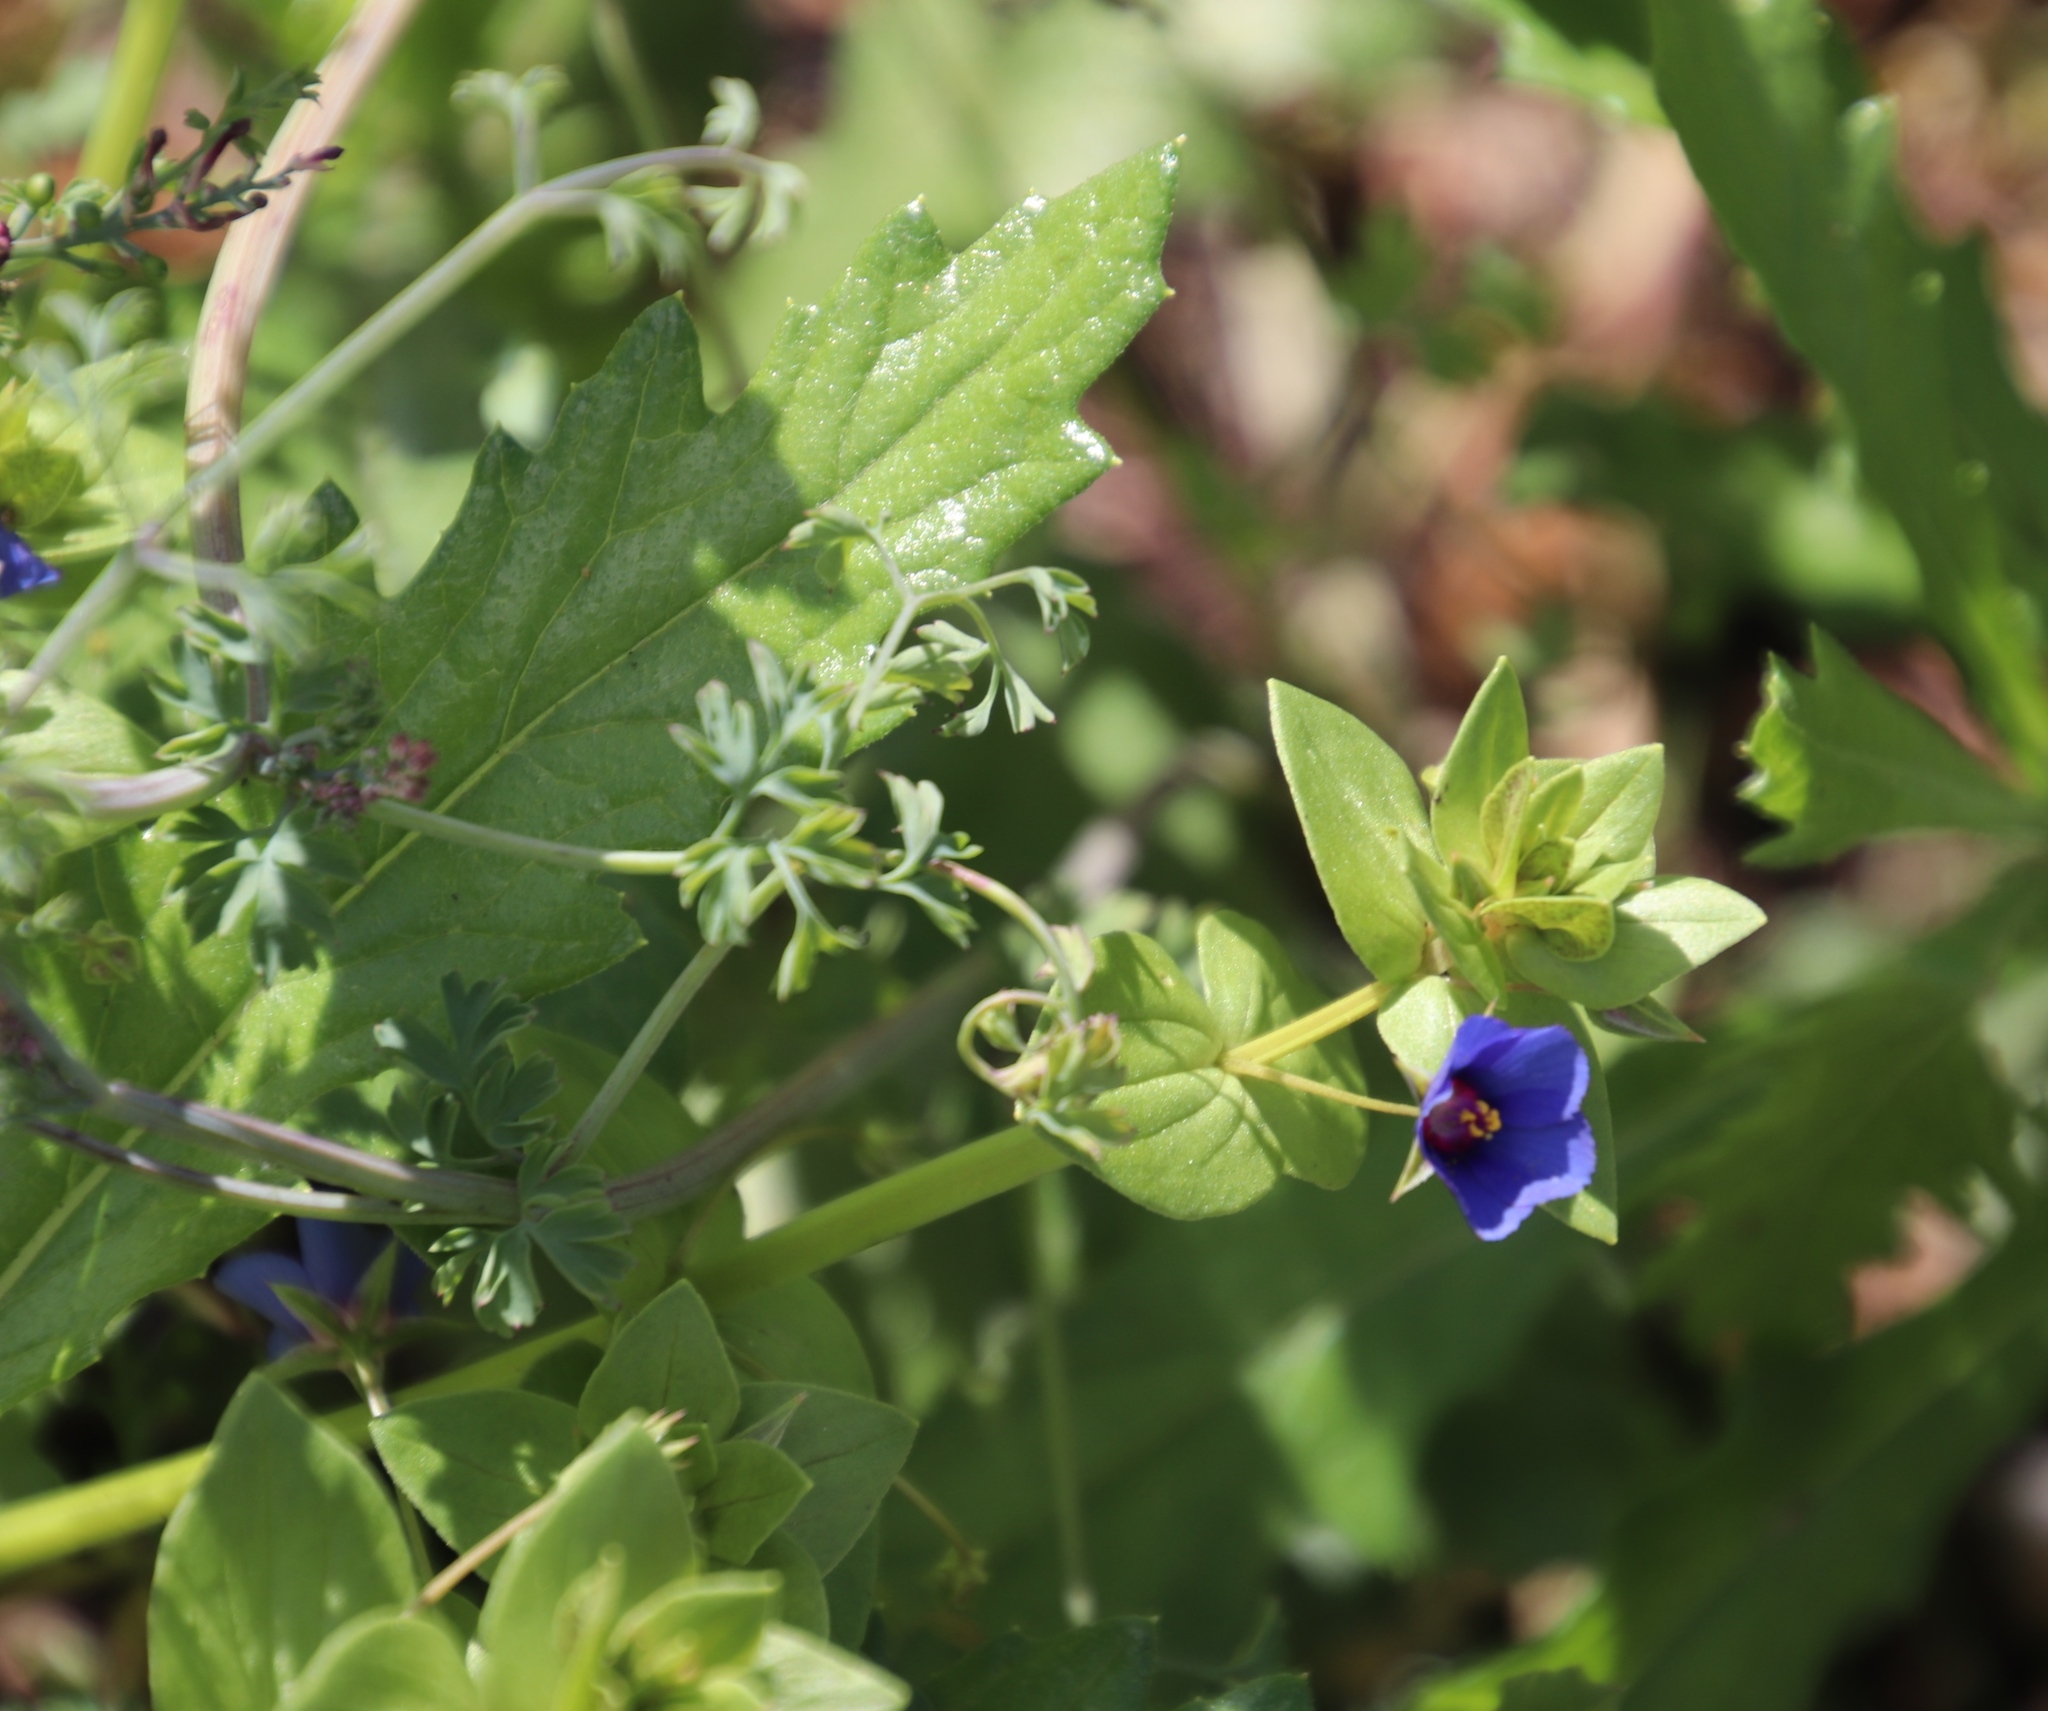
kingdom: Plantae
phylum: Tracheophyta
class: Magnoliopsida
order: Ericales
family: Primulaceae
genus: Lysimachia
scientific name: Lysimachia loeflingii
